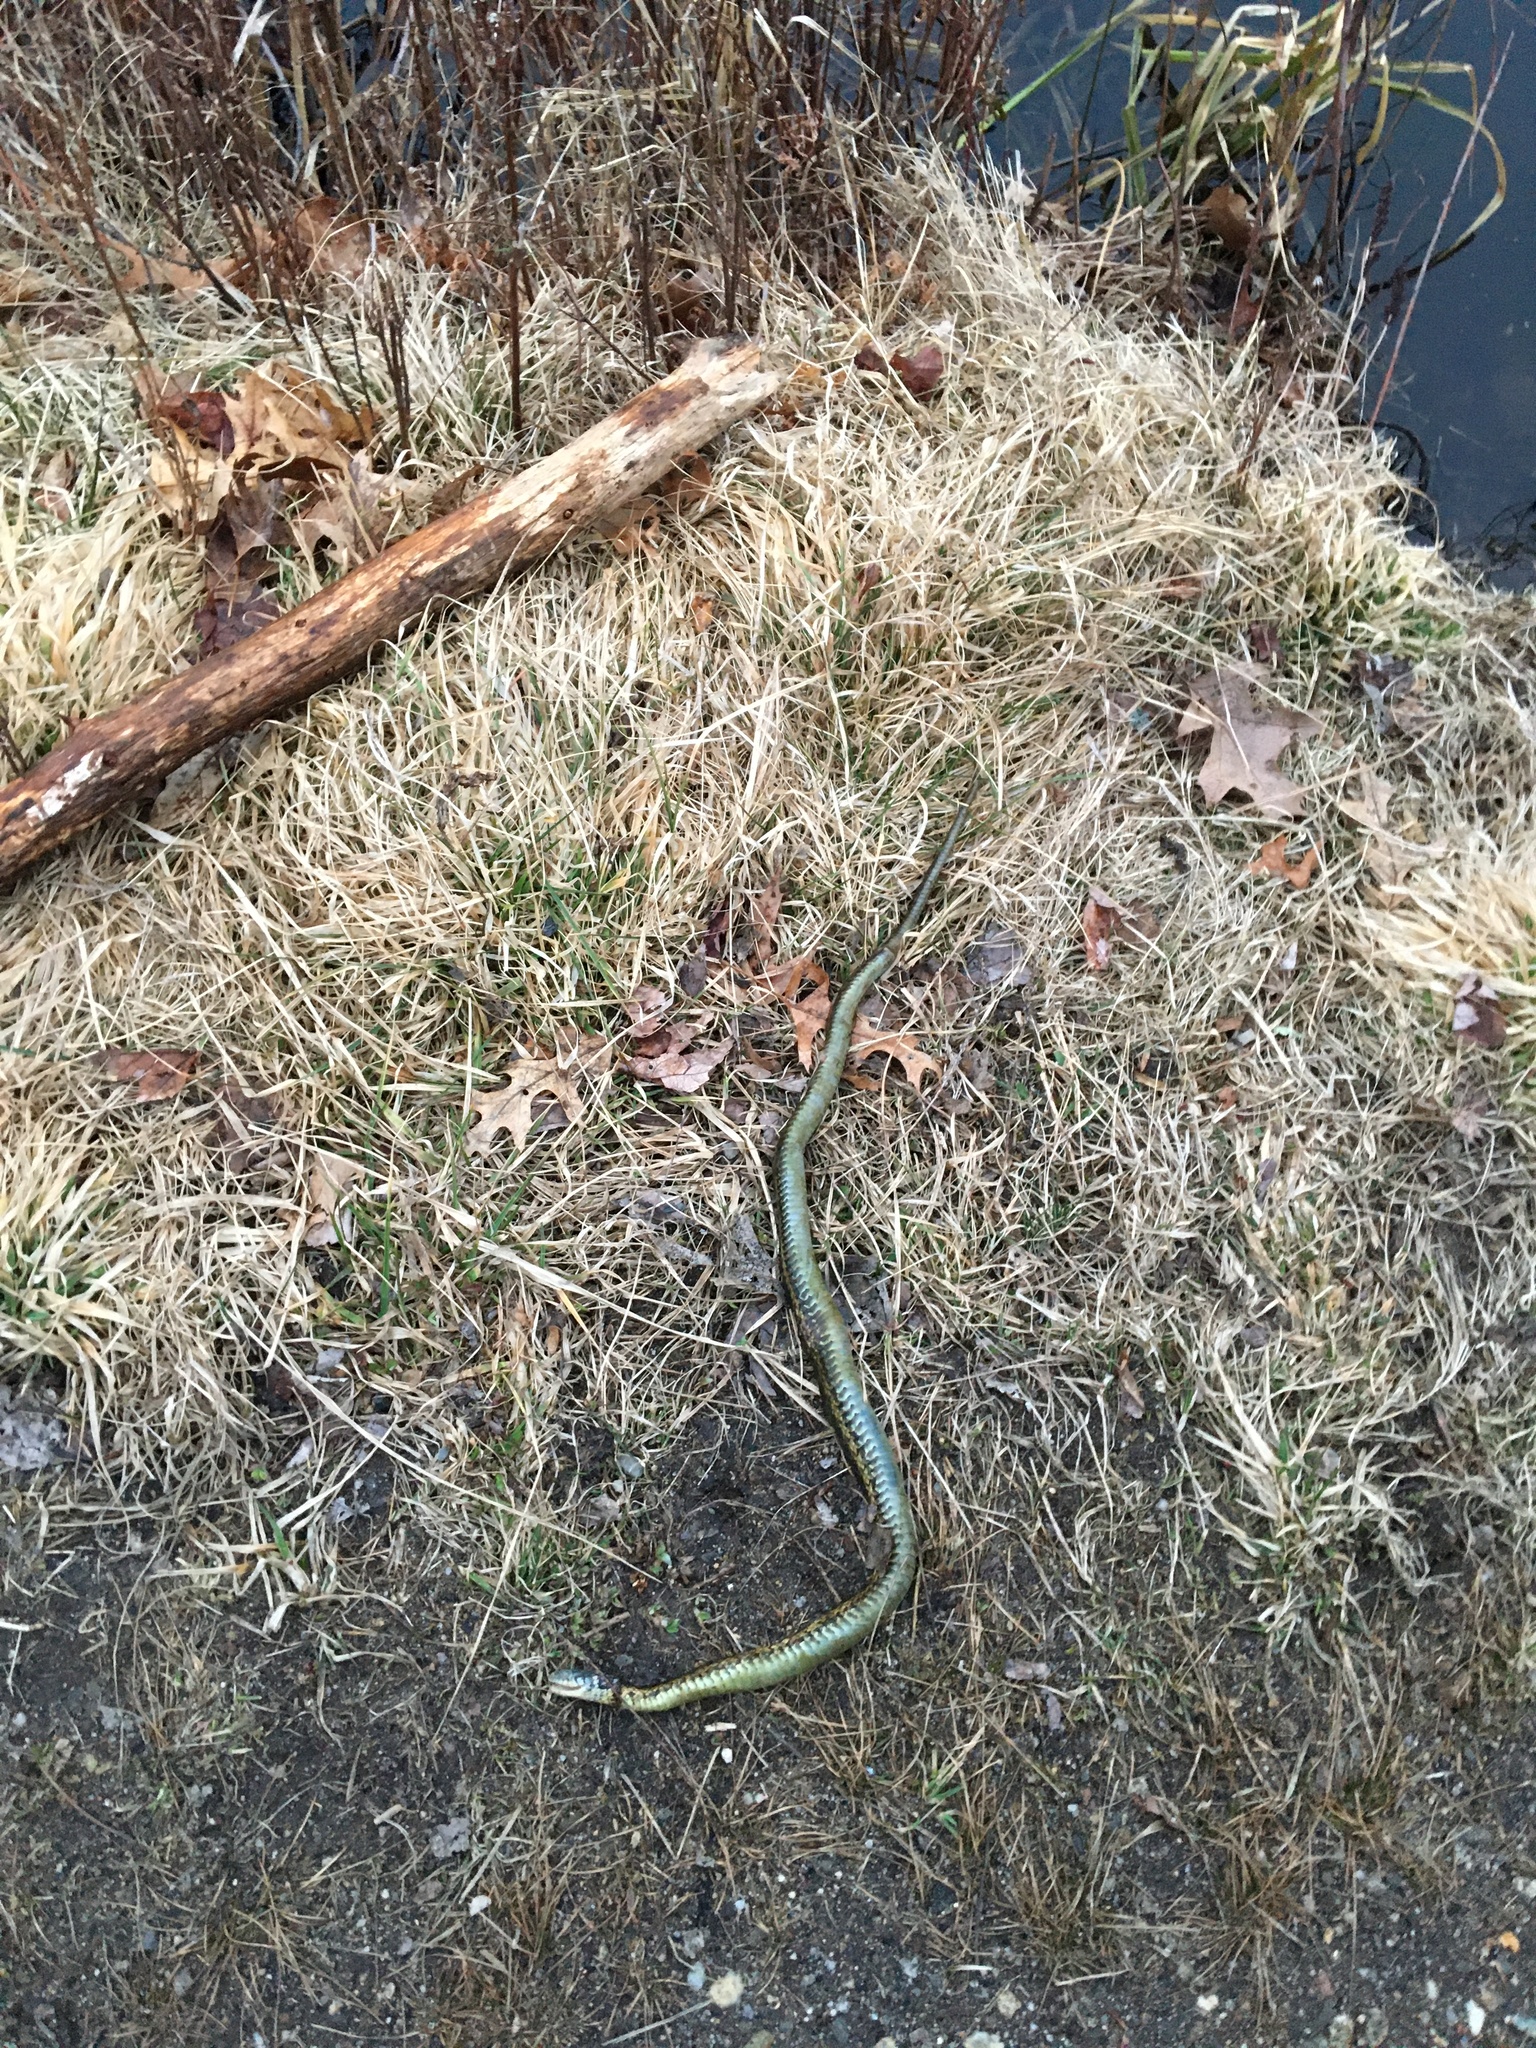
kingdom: Animalia
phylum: Chordata
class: Squamata
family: Colubridae
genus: Thamnophis
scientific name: Thamnophis sirtalis
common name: Common garter snake
